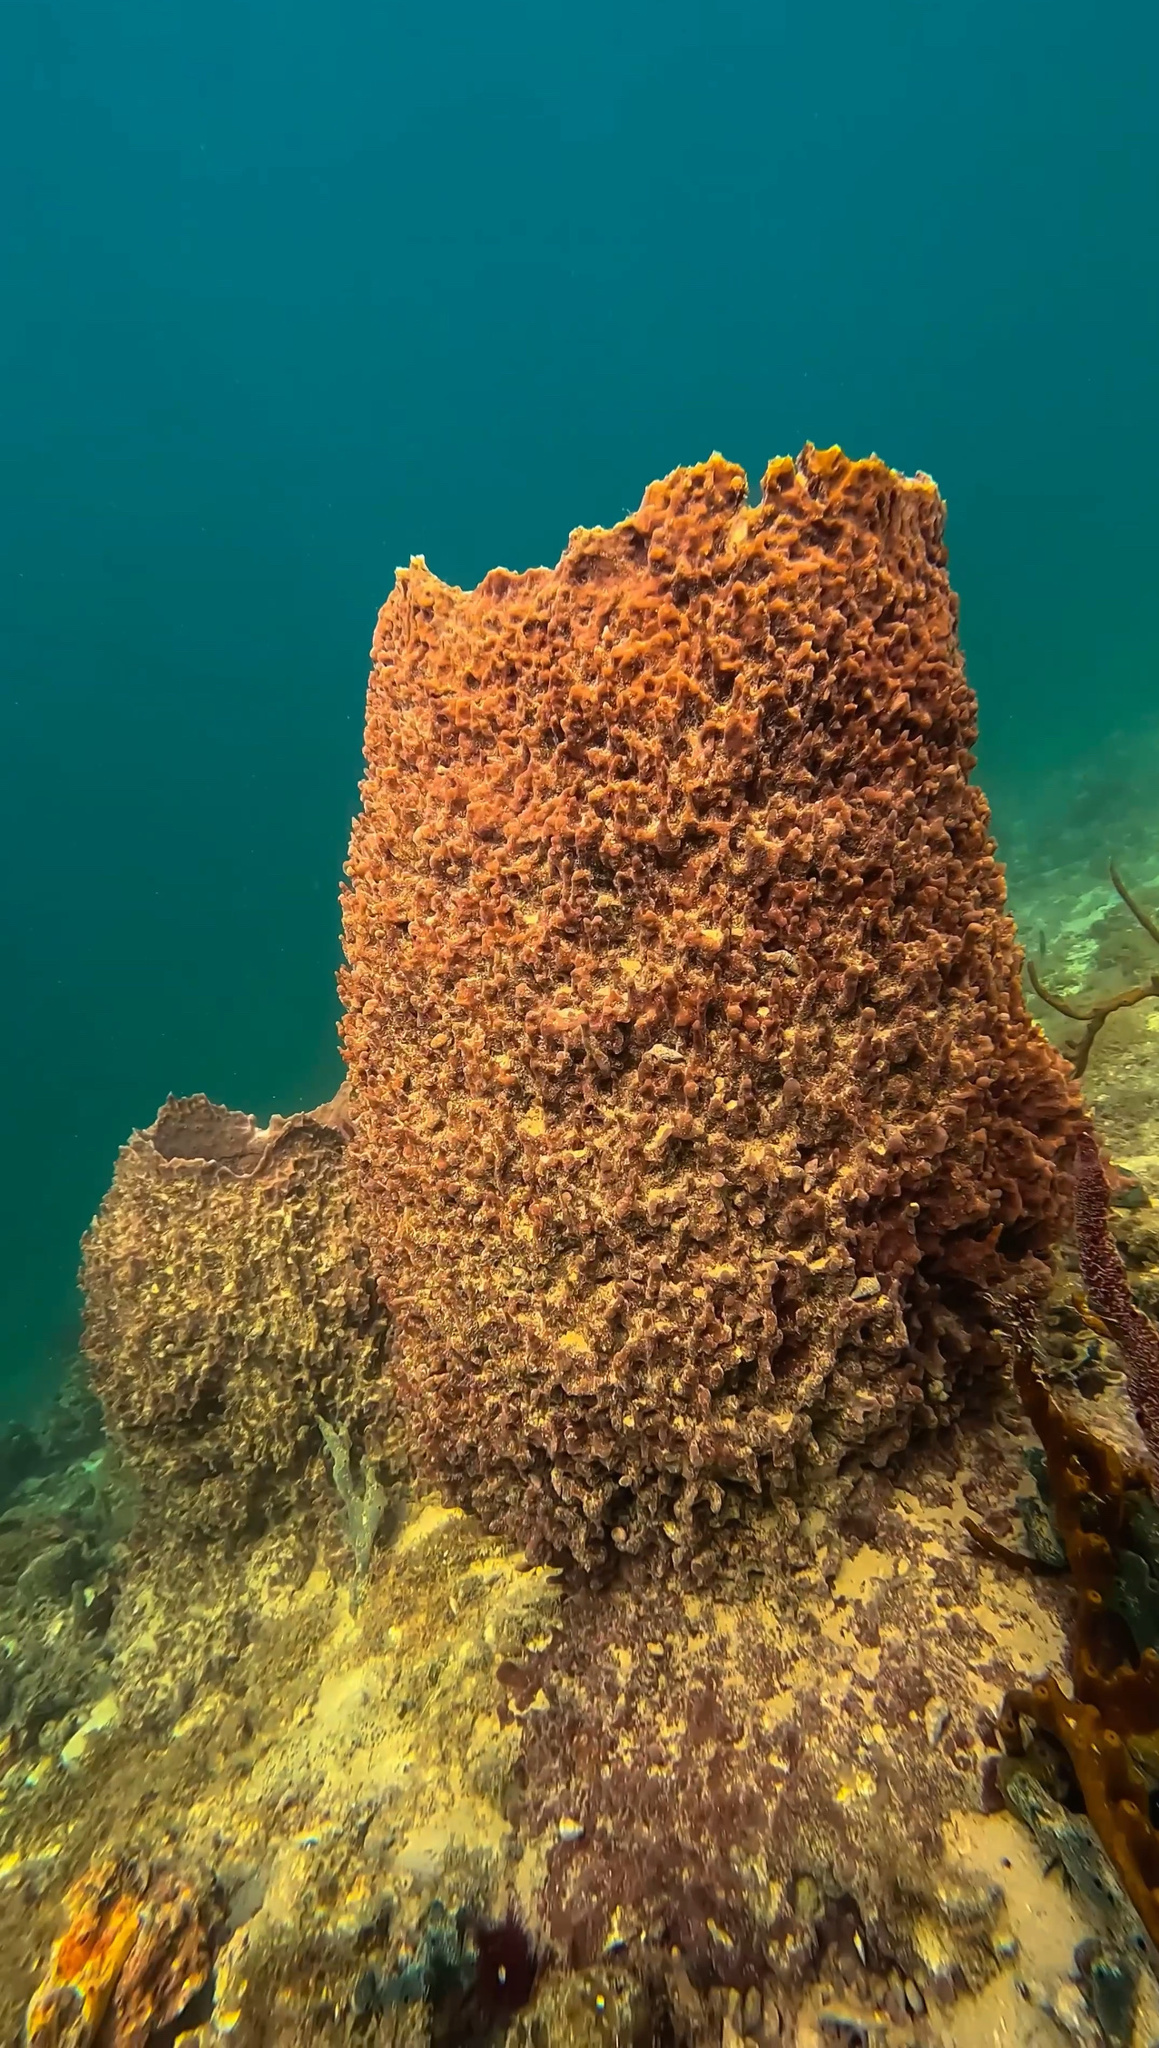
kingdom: Animalia
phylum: Porifera
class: Demospongiae
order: Haplosclerida
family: Petrosiidae
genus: Xestospongia
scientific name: Xestospongia muta
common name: Giant barrel sponge
